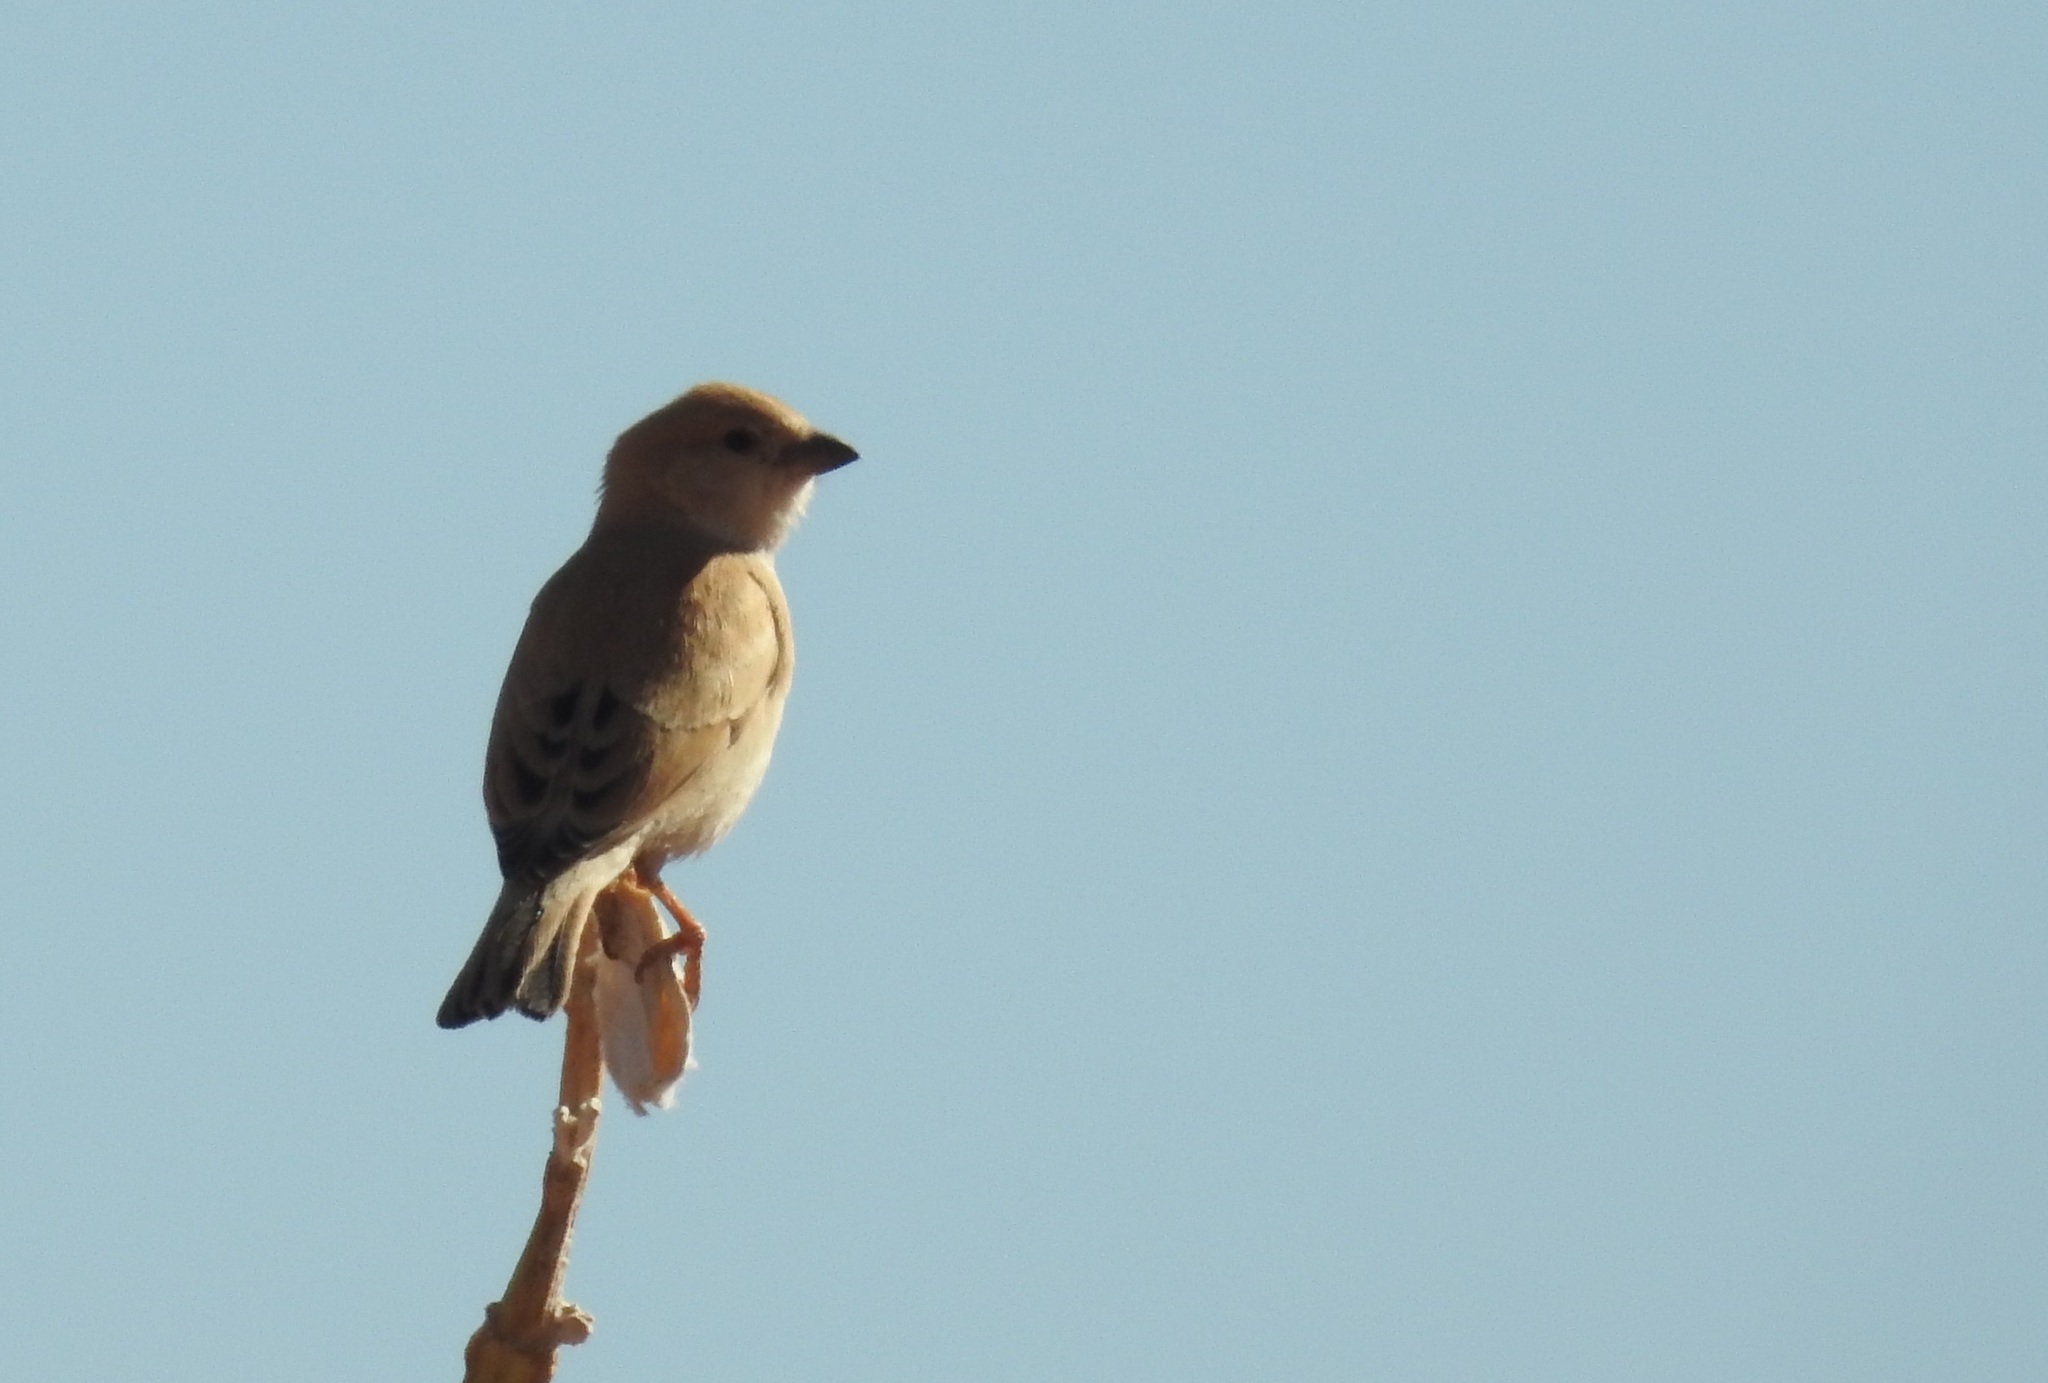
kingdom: Animalia
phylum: Chordata
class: Aves
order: Passeriformes
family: Passeridae
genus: Passer
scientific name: Passer simplex
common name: Desert sparrow
